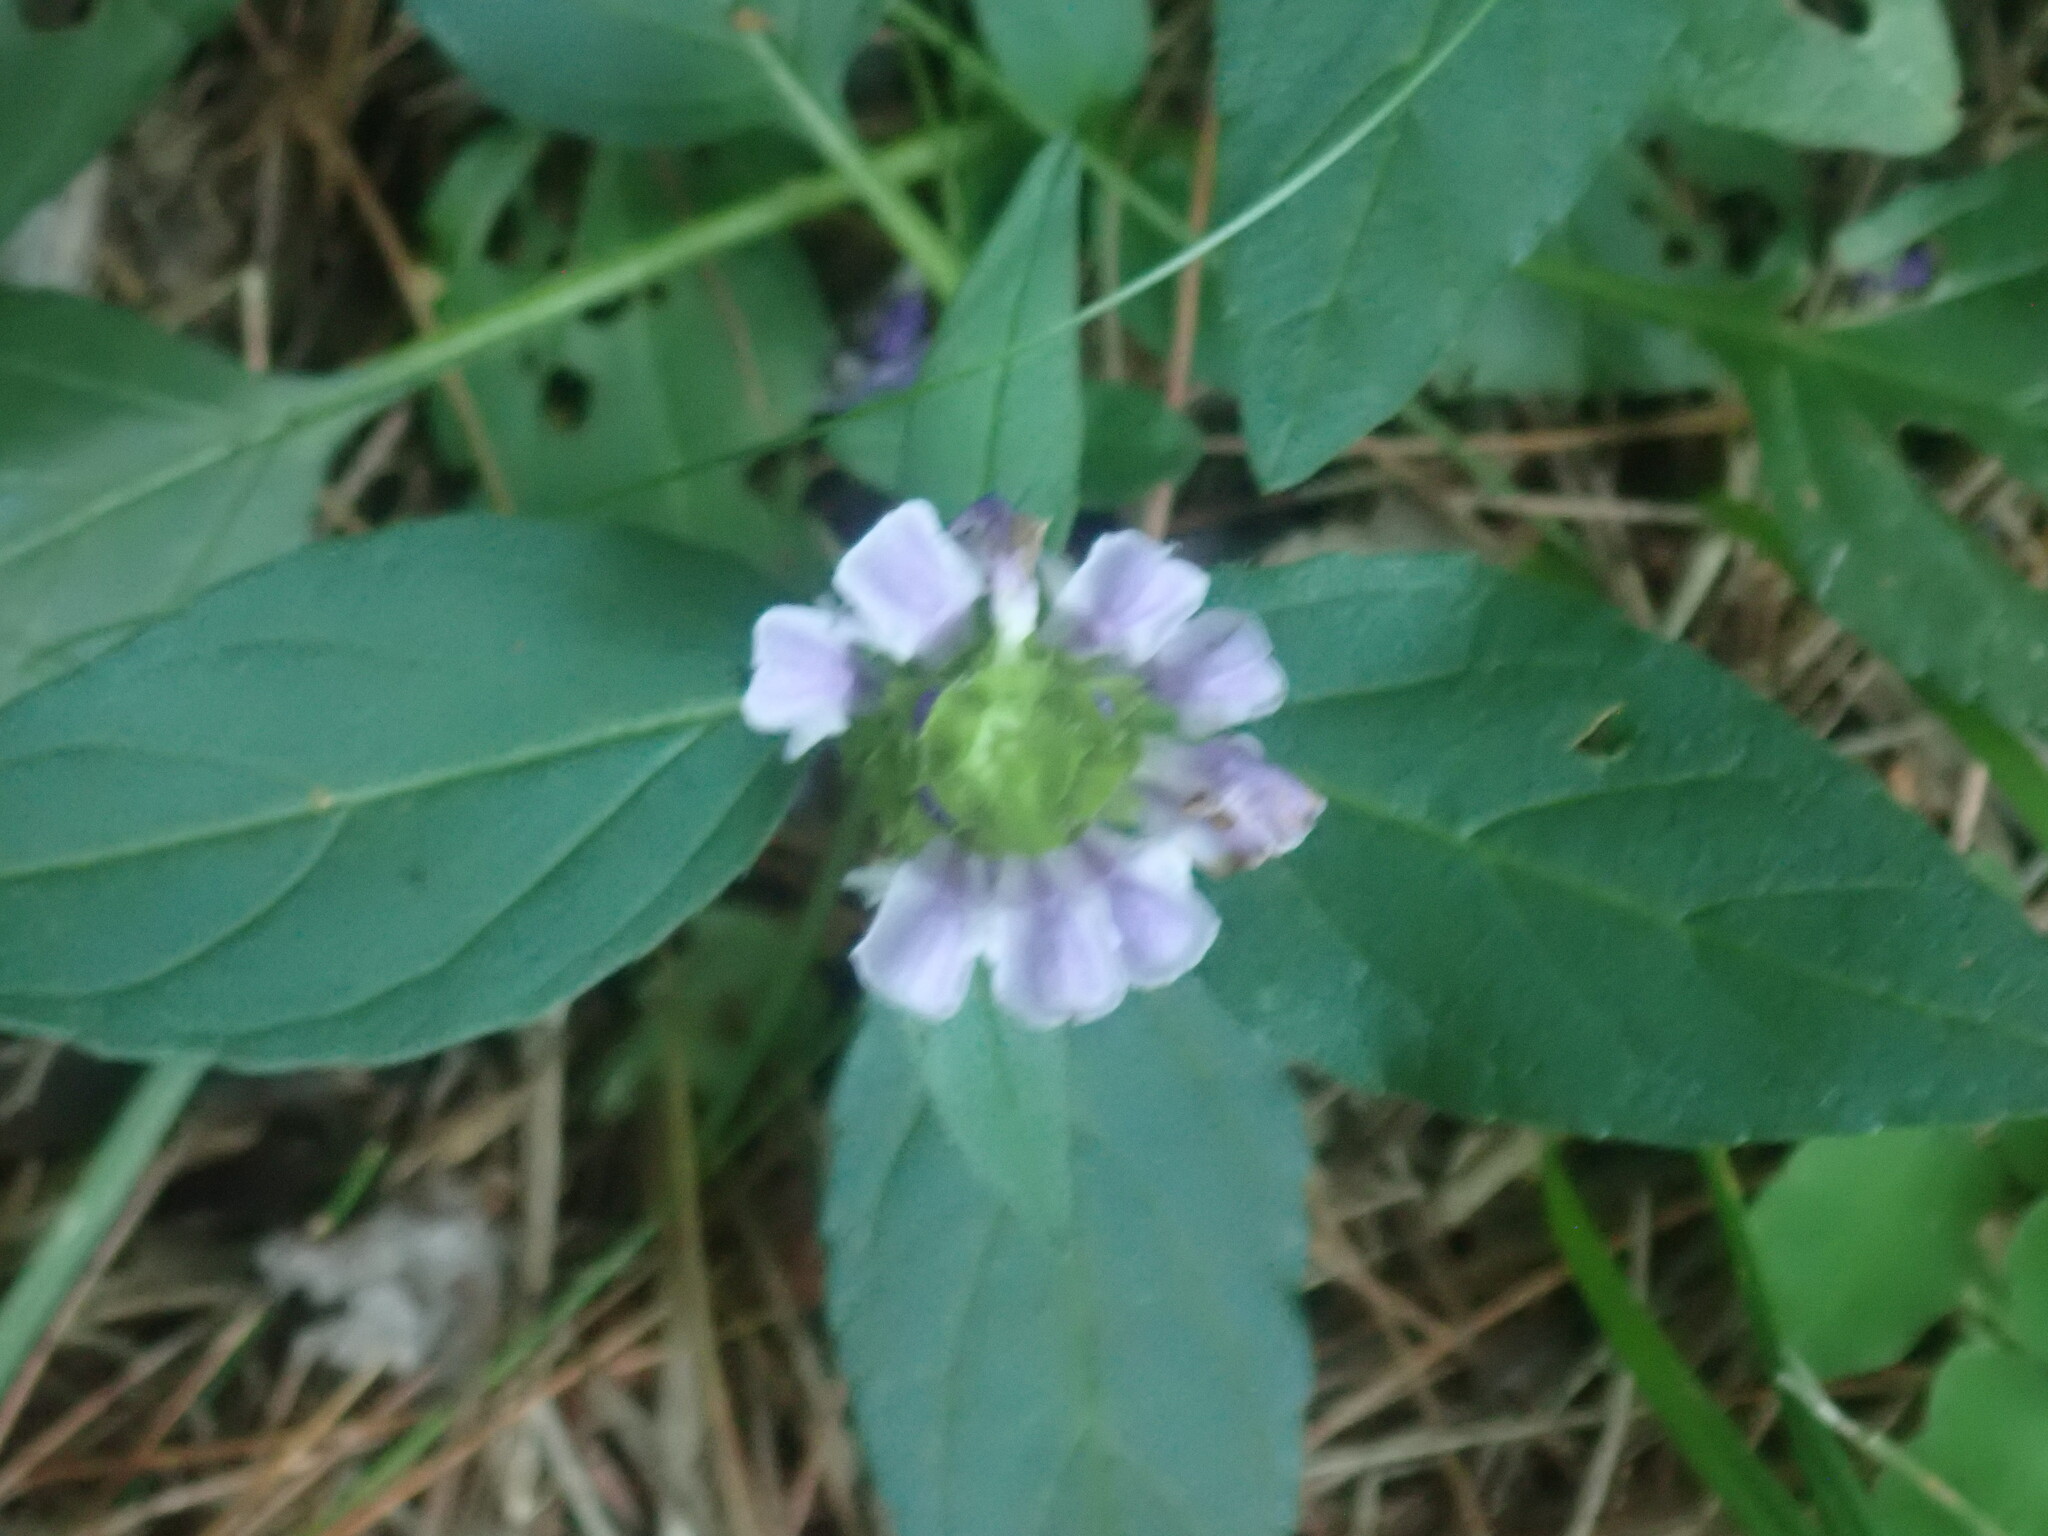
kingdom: Plantae
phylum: Tracheophyta
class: Magnoliopsida
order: Lamiales
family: Lamiaceae
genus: Prunella
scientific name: Prunella vulgaris
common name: Heal-all
